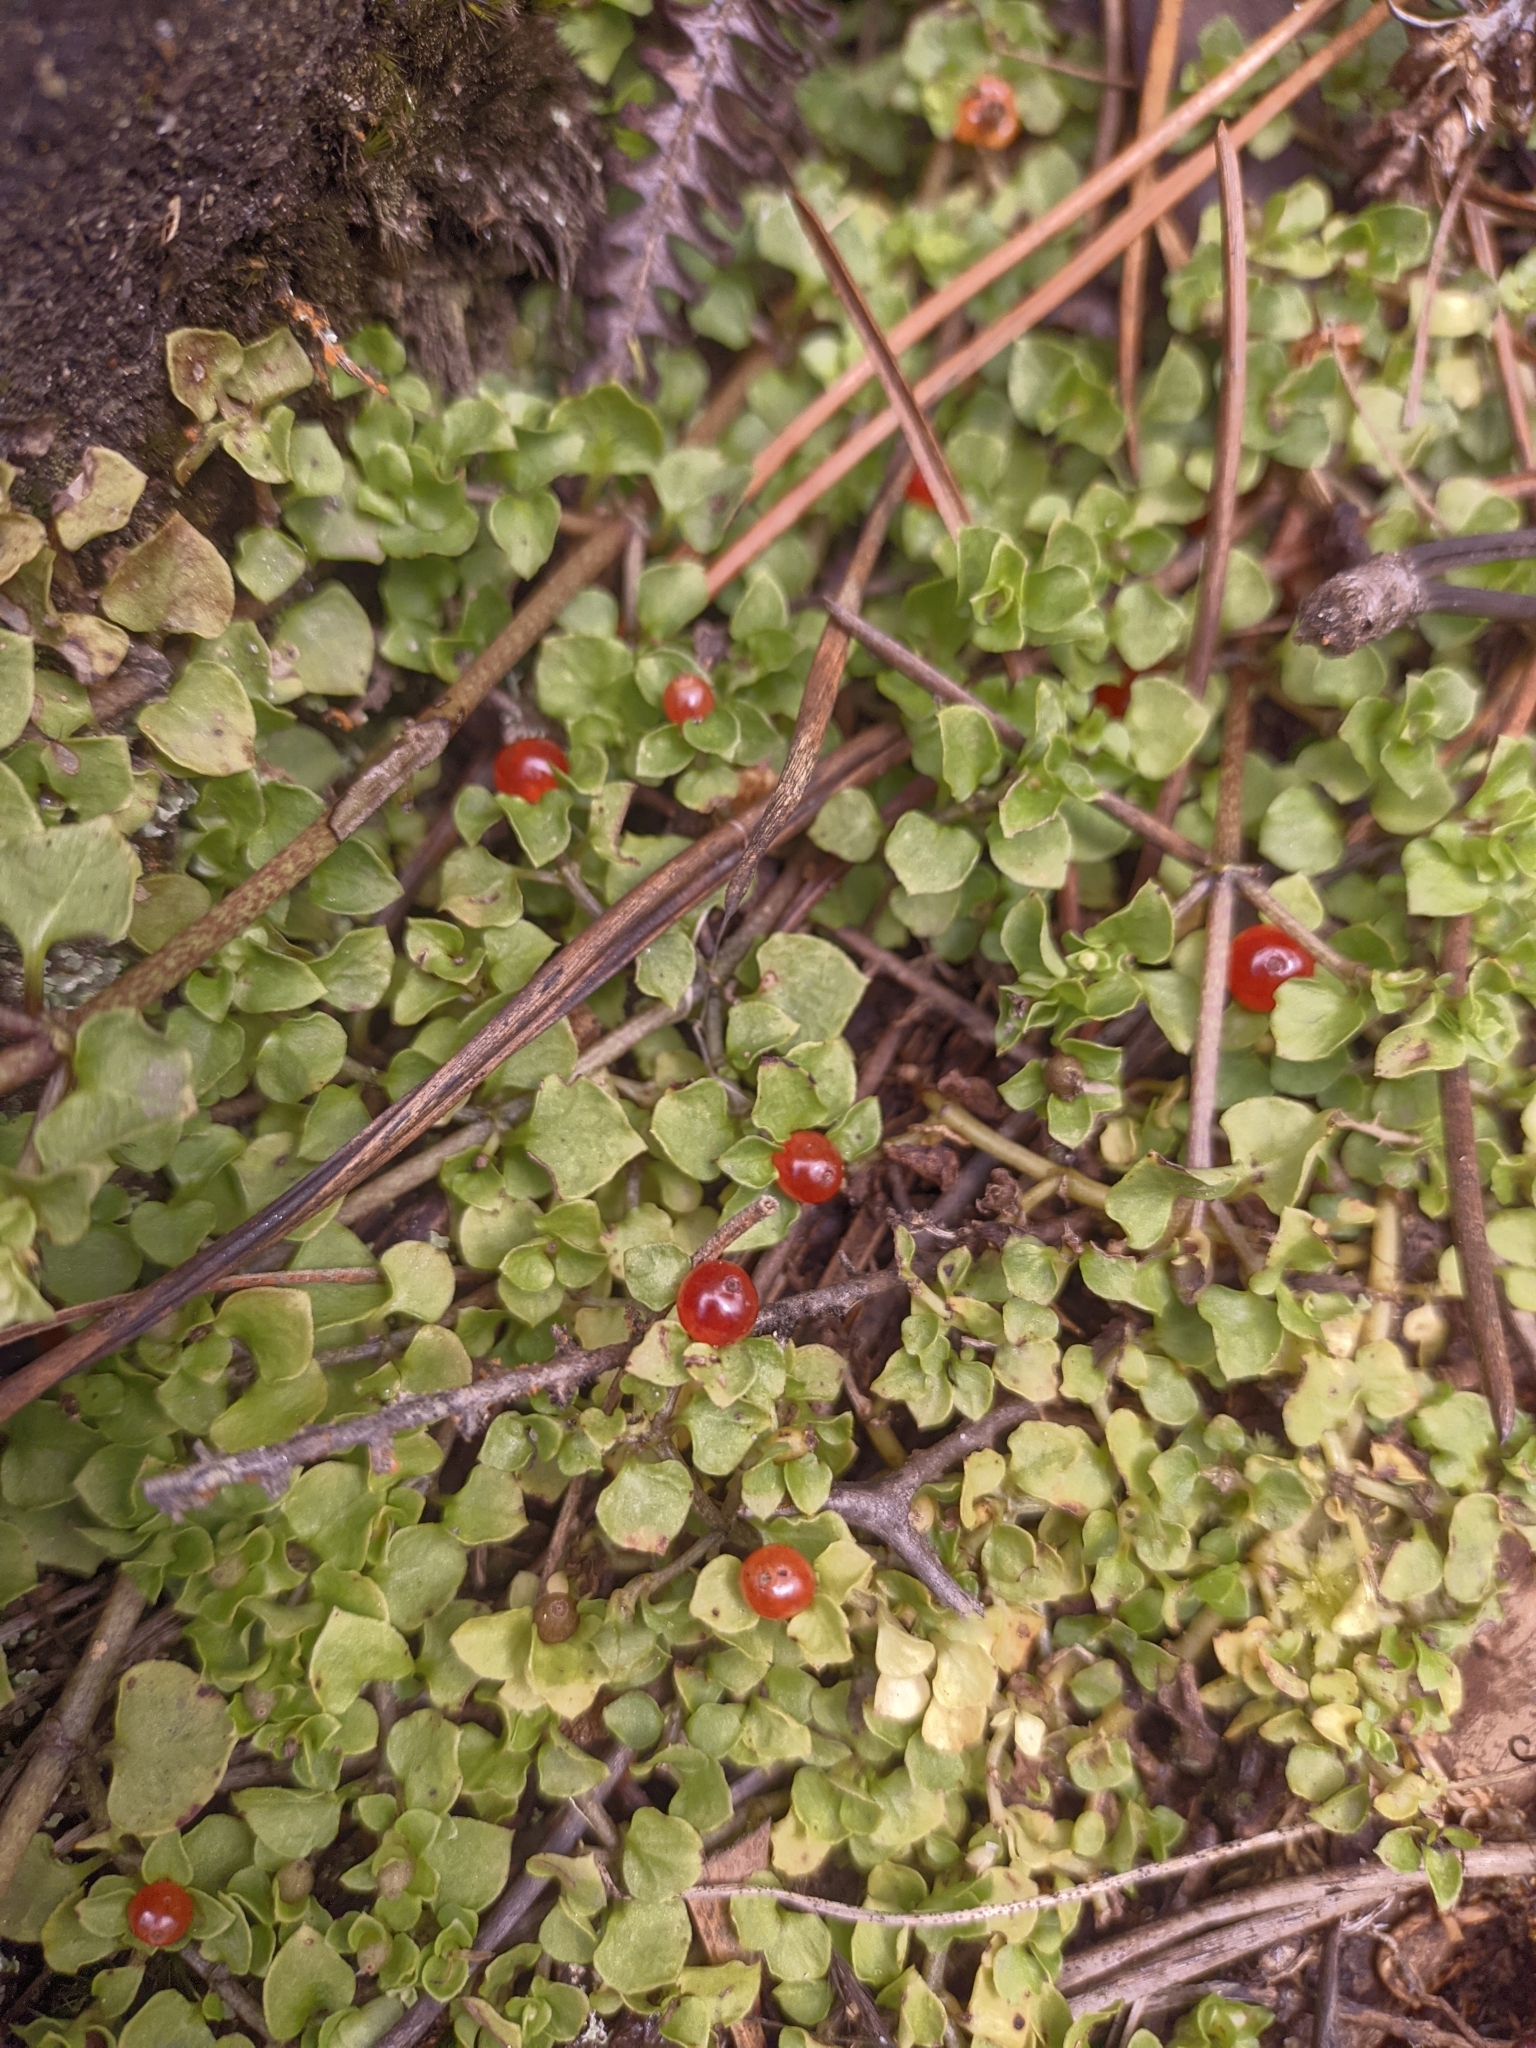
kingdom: Plantae
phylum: Tracheophyta
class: Magnoliopsida
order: Gentianales
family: Rubiaceae
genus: Nertera
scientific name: Nertera granadensis
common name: Beadplant
